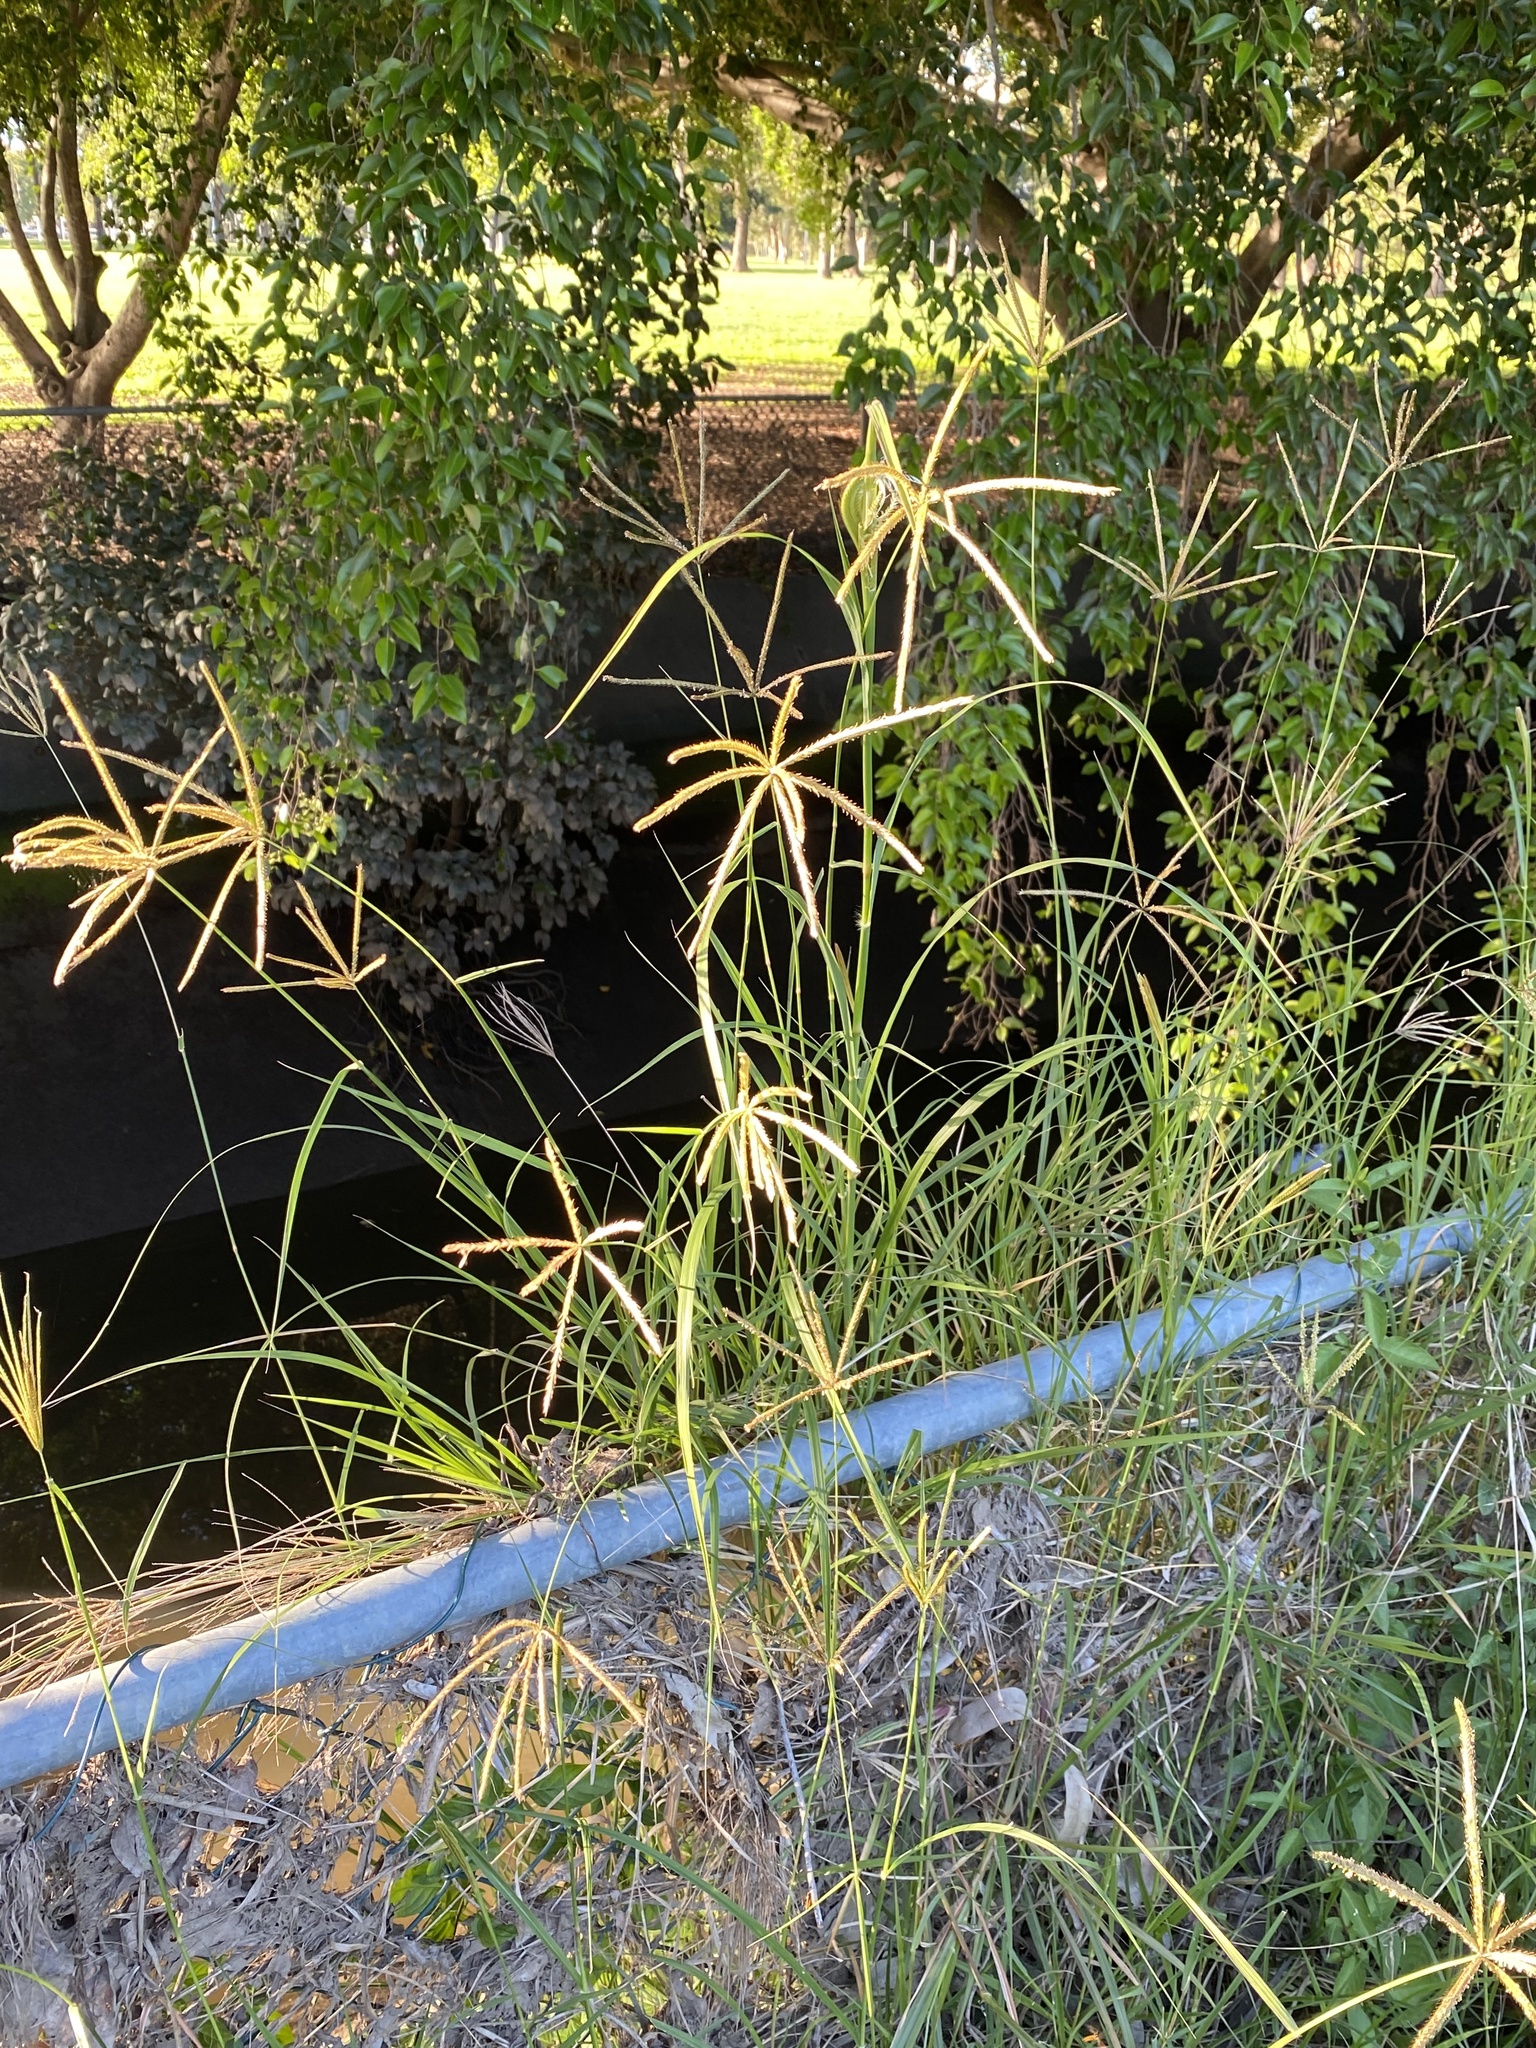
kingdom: Plantae
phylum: Tracheophyta
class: Liliopsida
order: Poales
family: Poaceae
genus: Chloris
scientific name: Chloris gayana
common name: Rhodes grass
